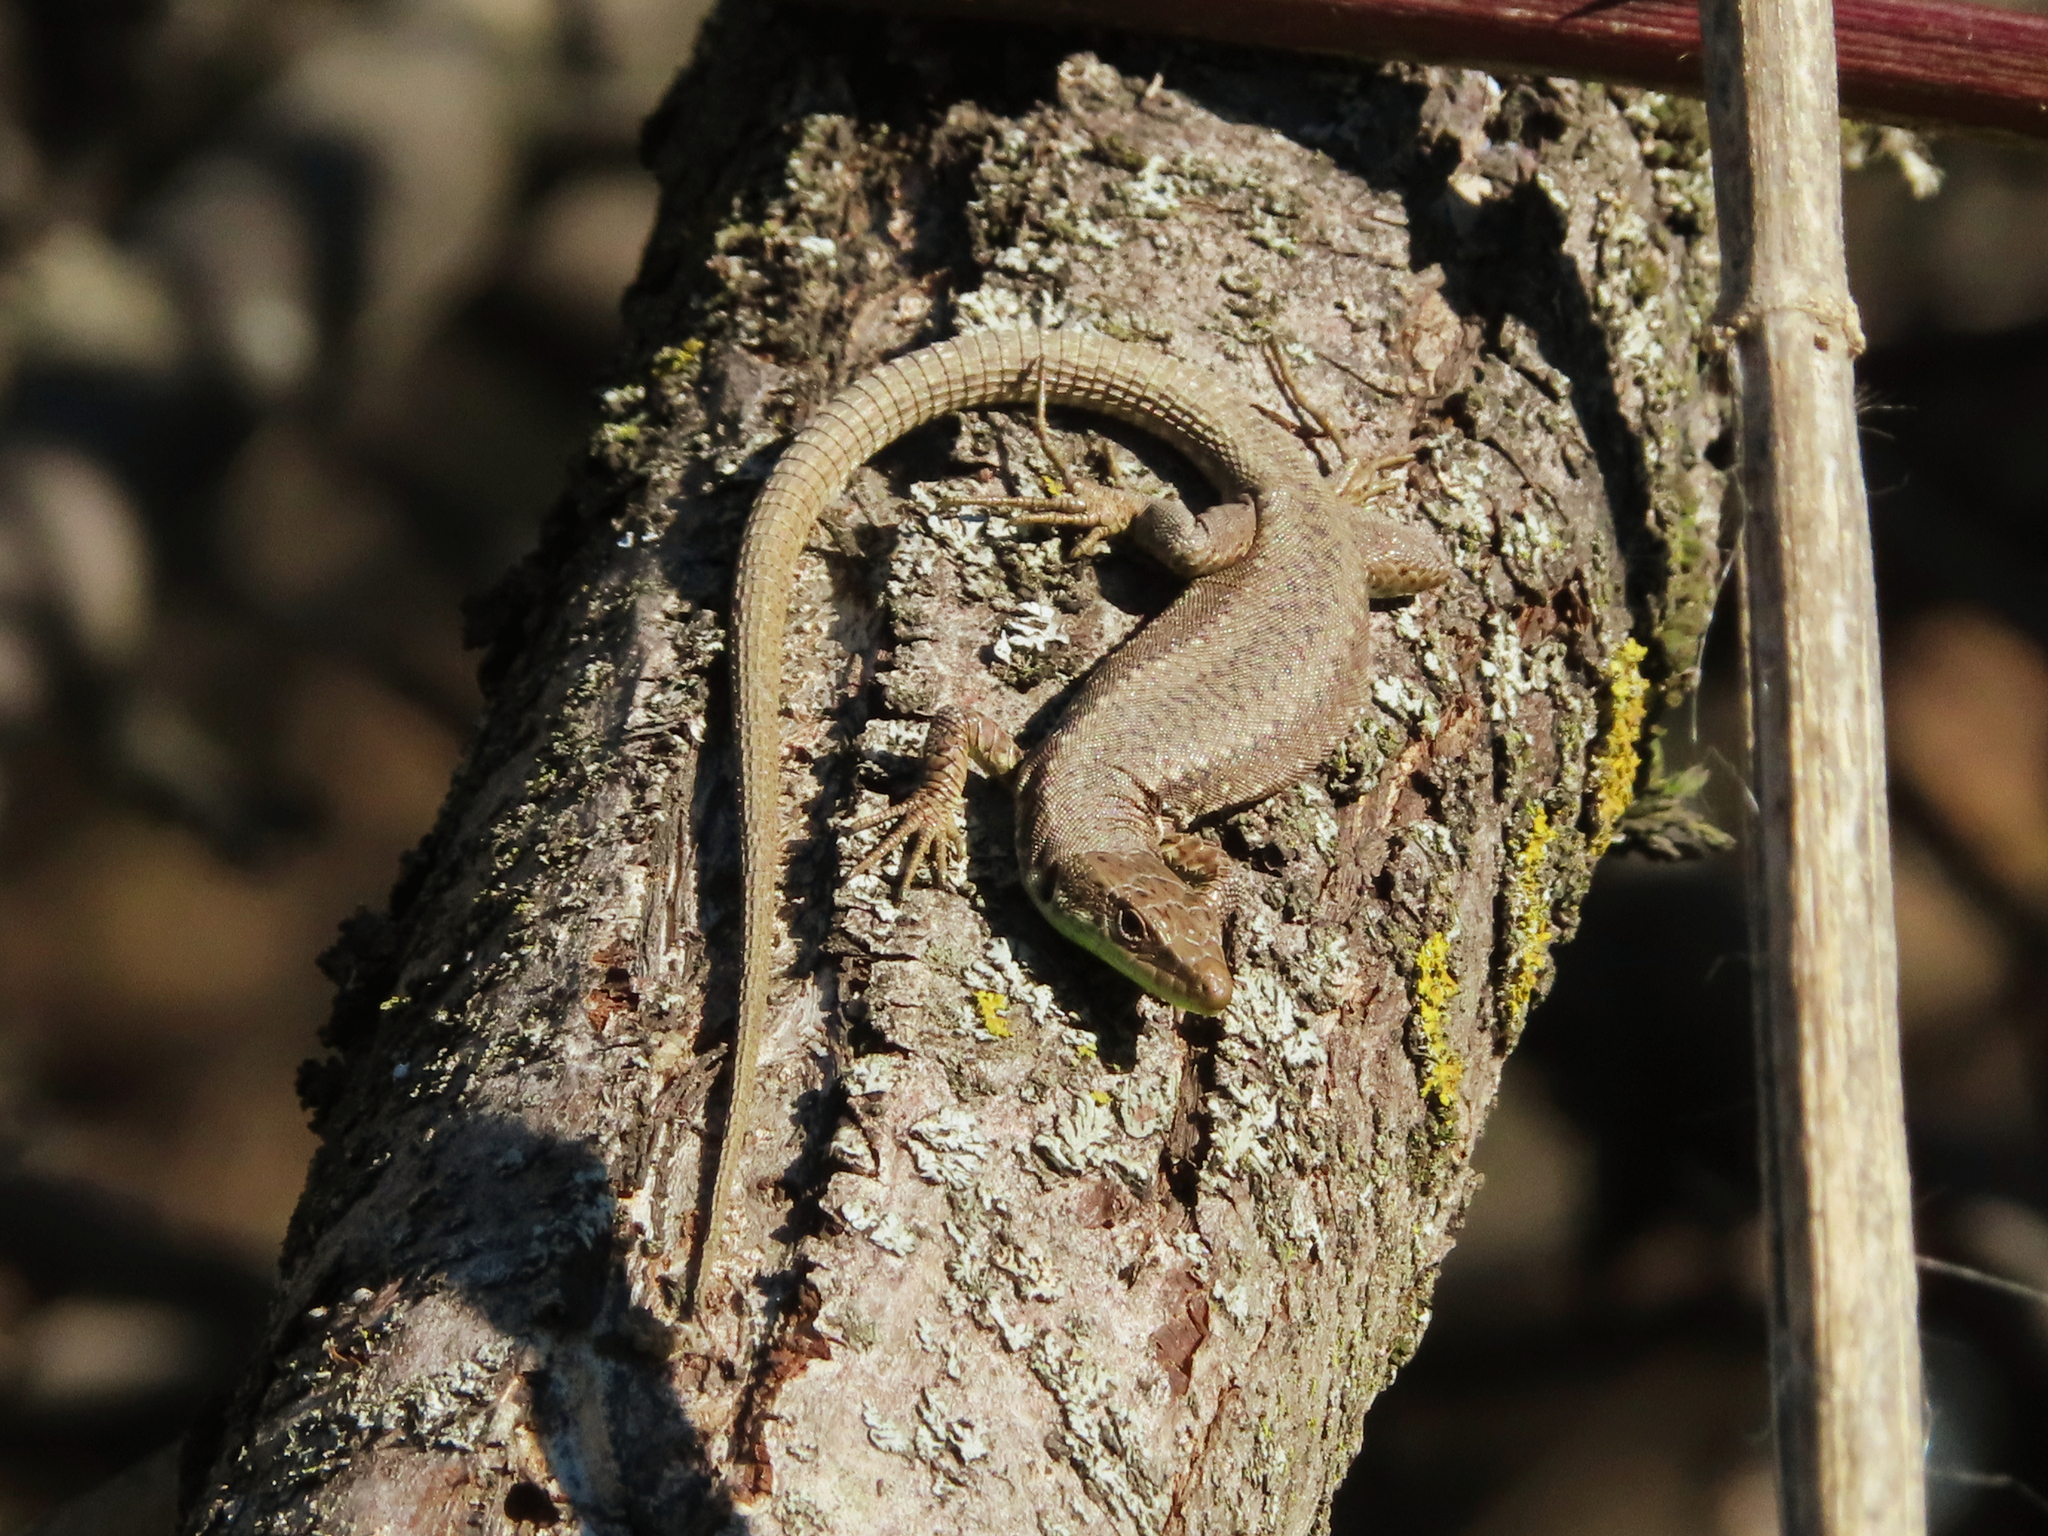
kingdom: Animalia
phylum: Chordata
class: Squamata
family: Lacertidae
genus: Darevskia
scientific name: Darevskia raddei
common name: Radde's lizard
